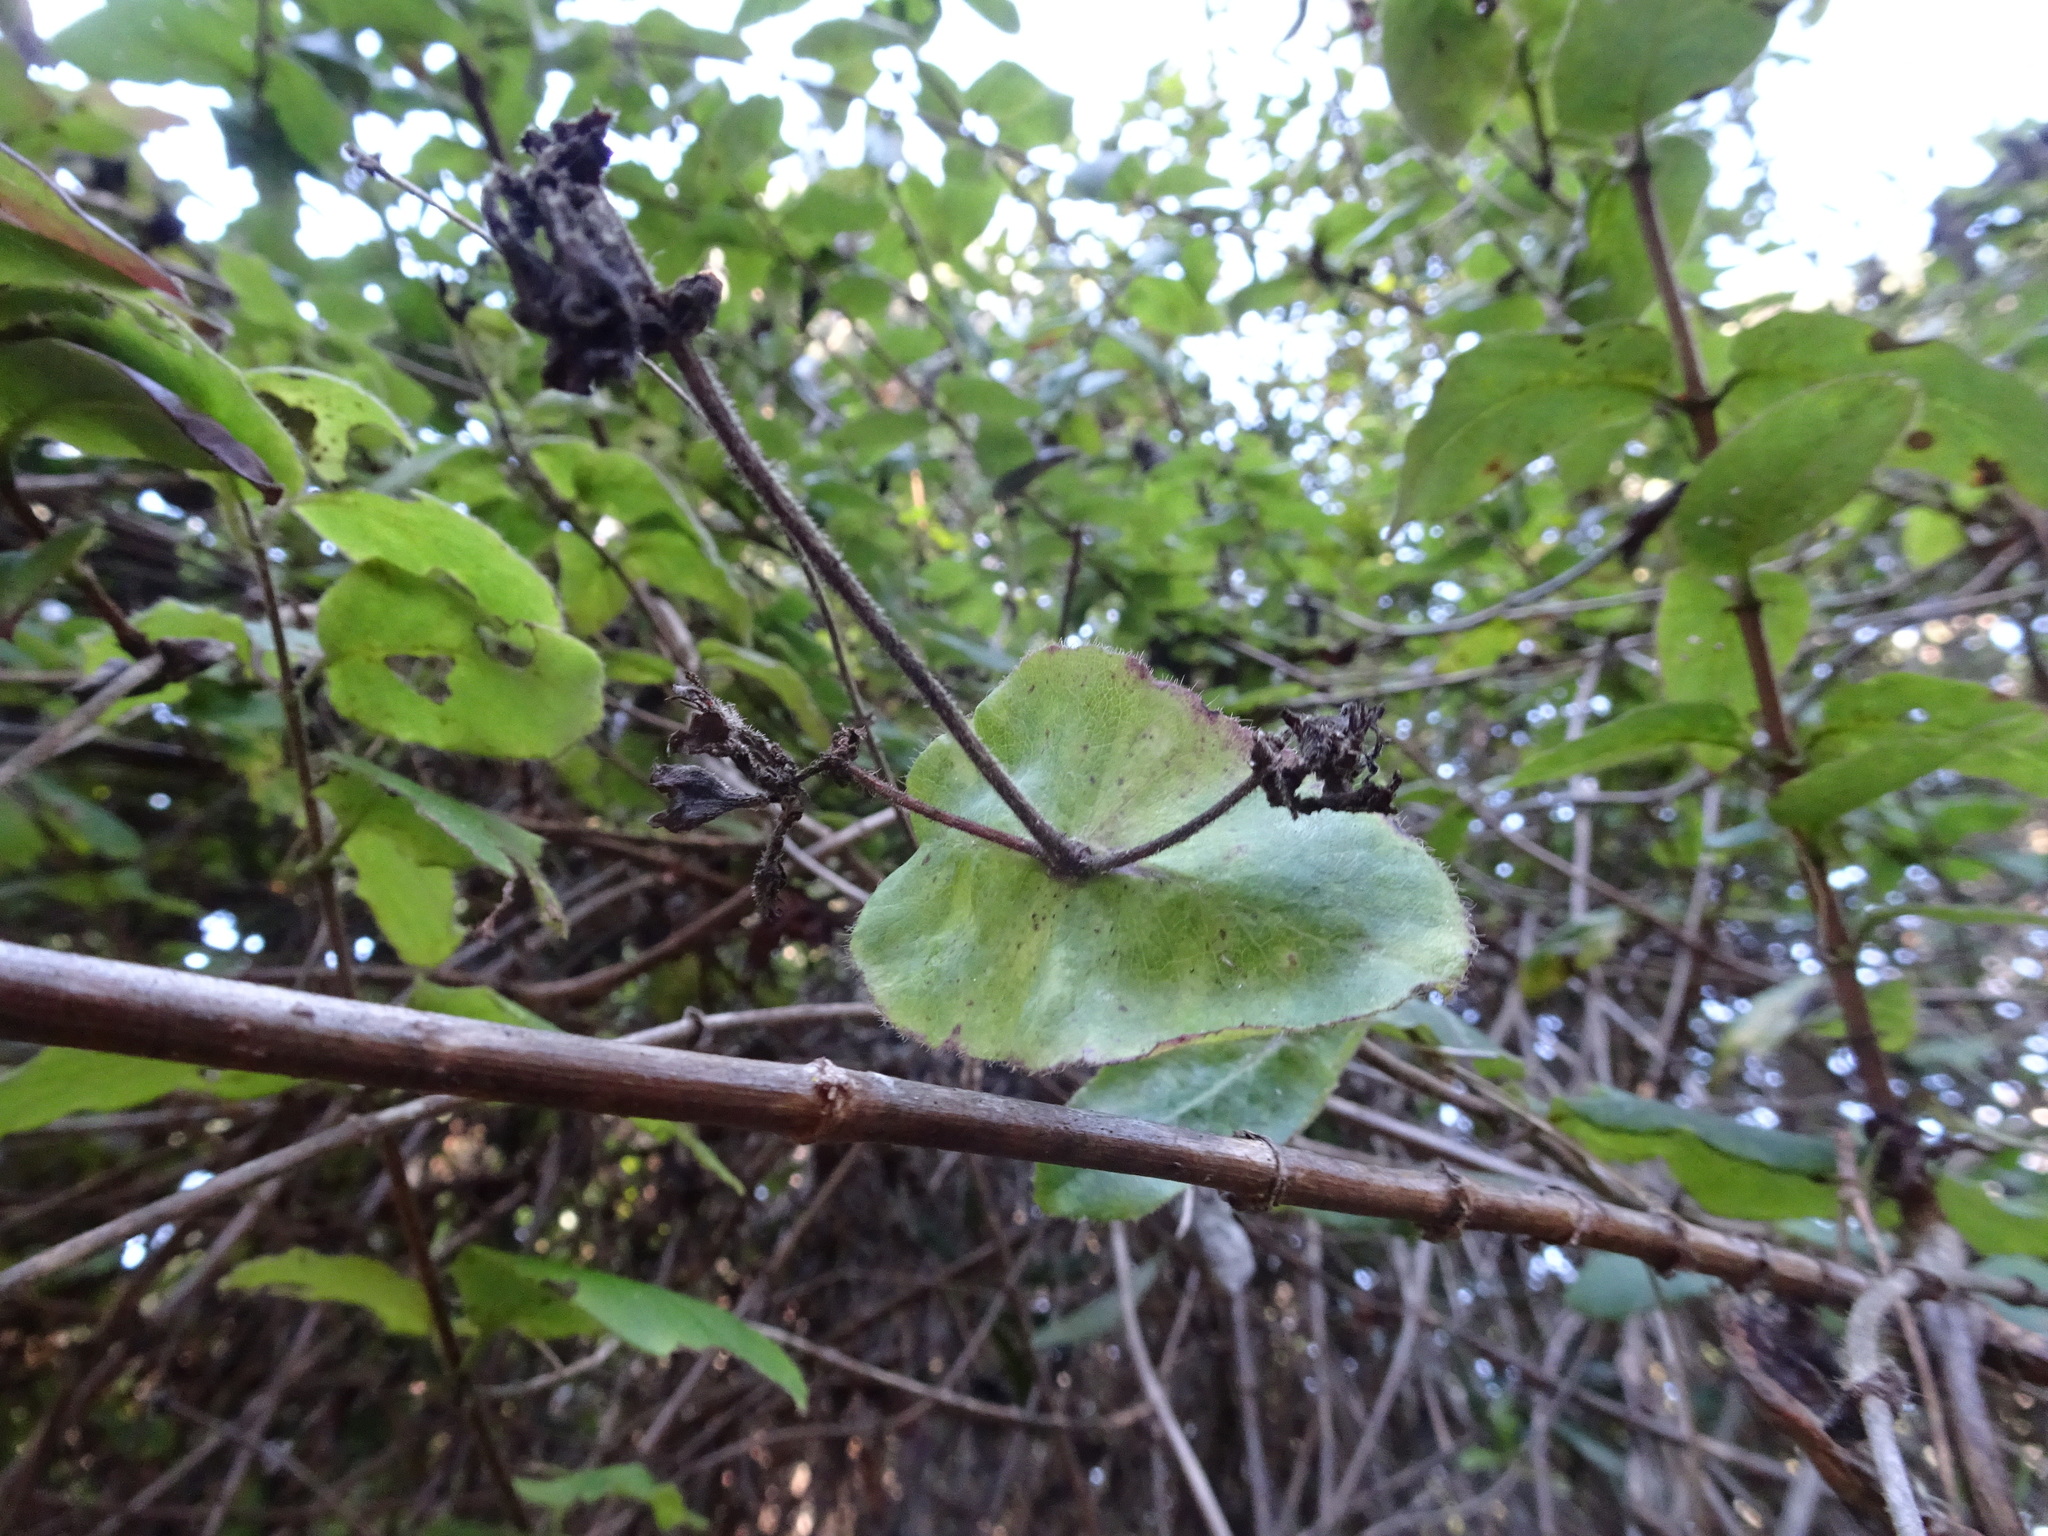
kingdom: Plantae
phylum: Tracheophyta
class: Magnoliopsida
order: Dipsacales
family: Caprifoliaceae
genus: Lonicera
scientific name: Lonicera hispidula
